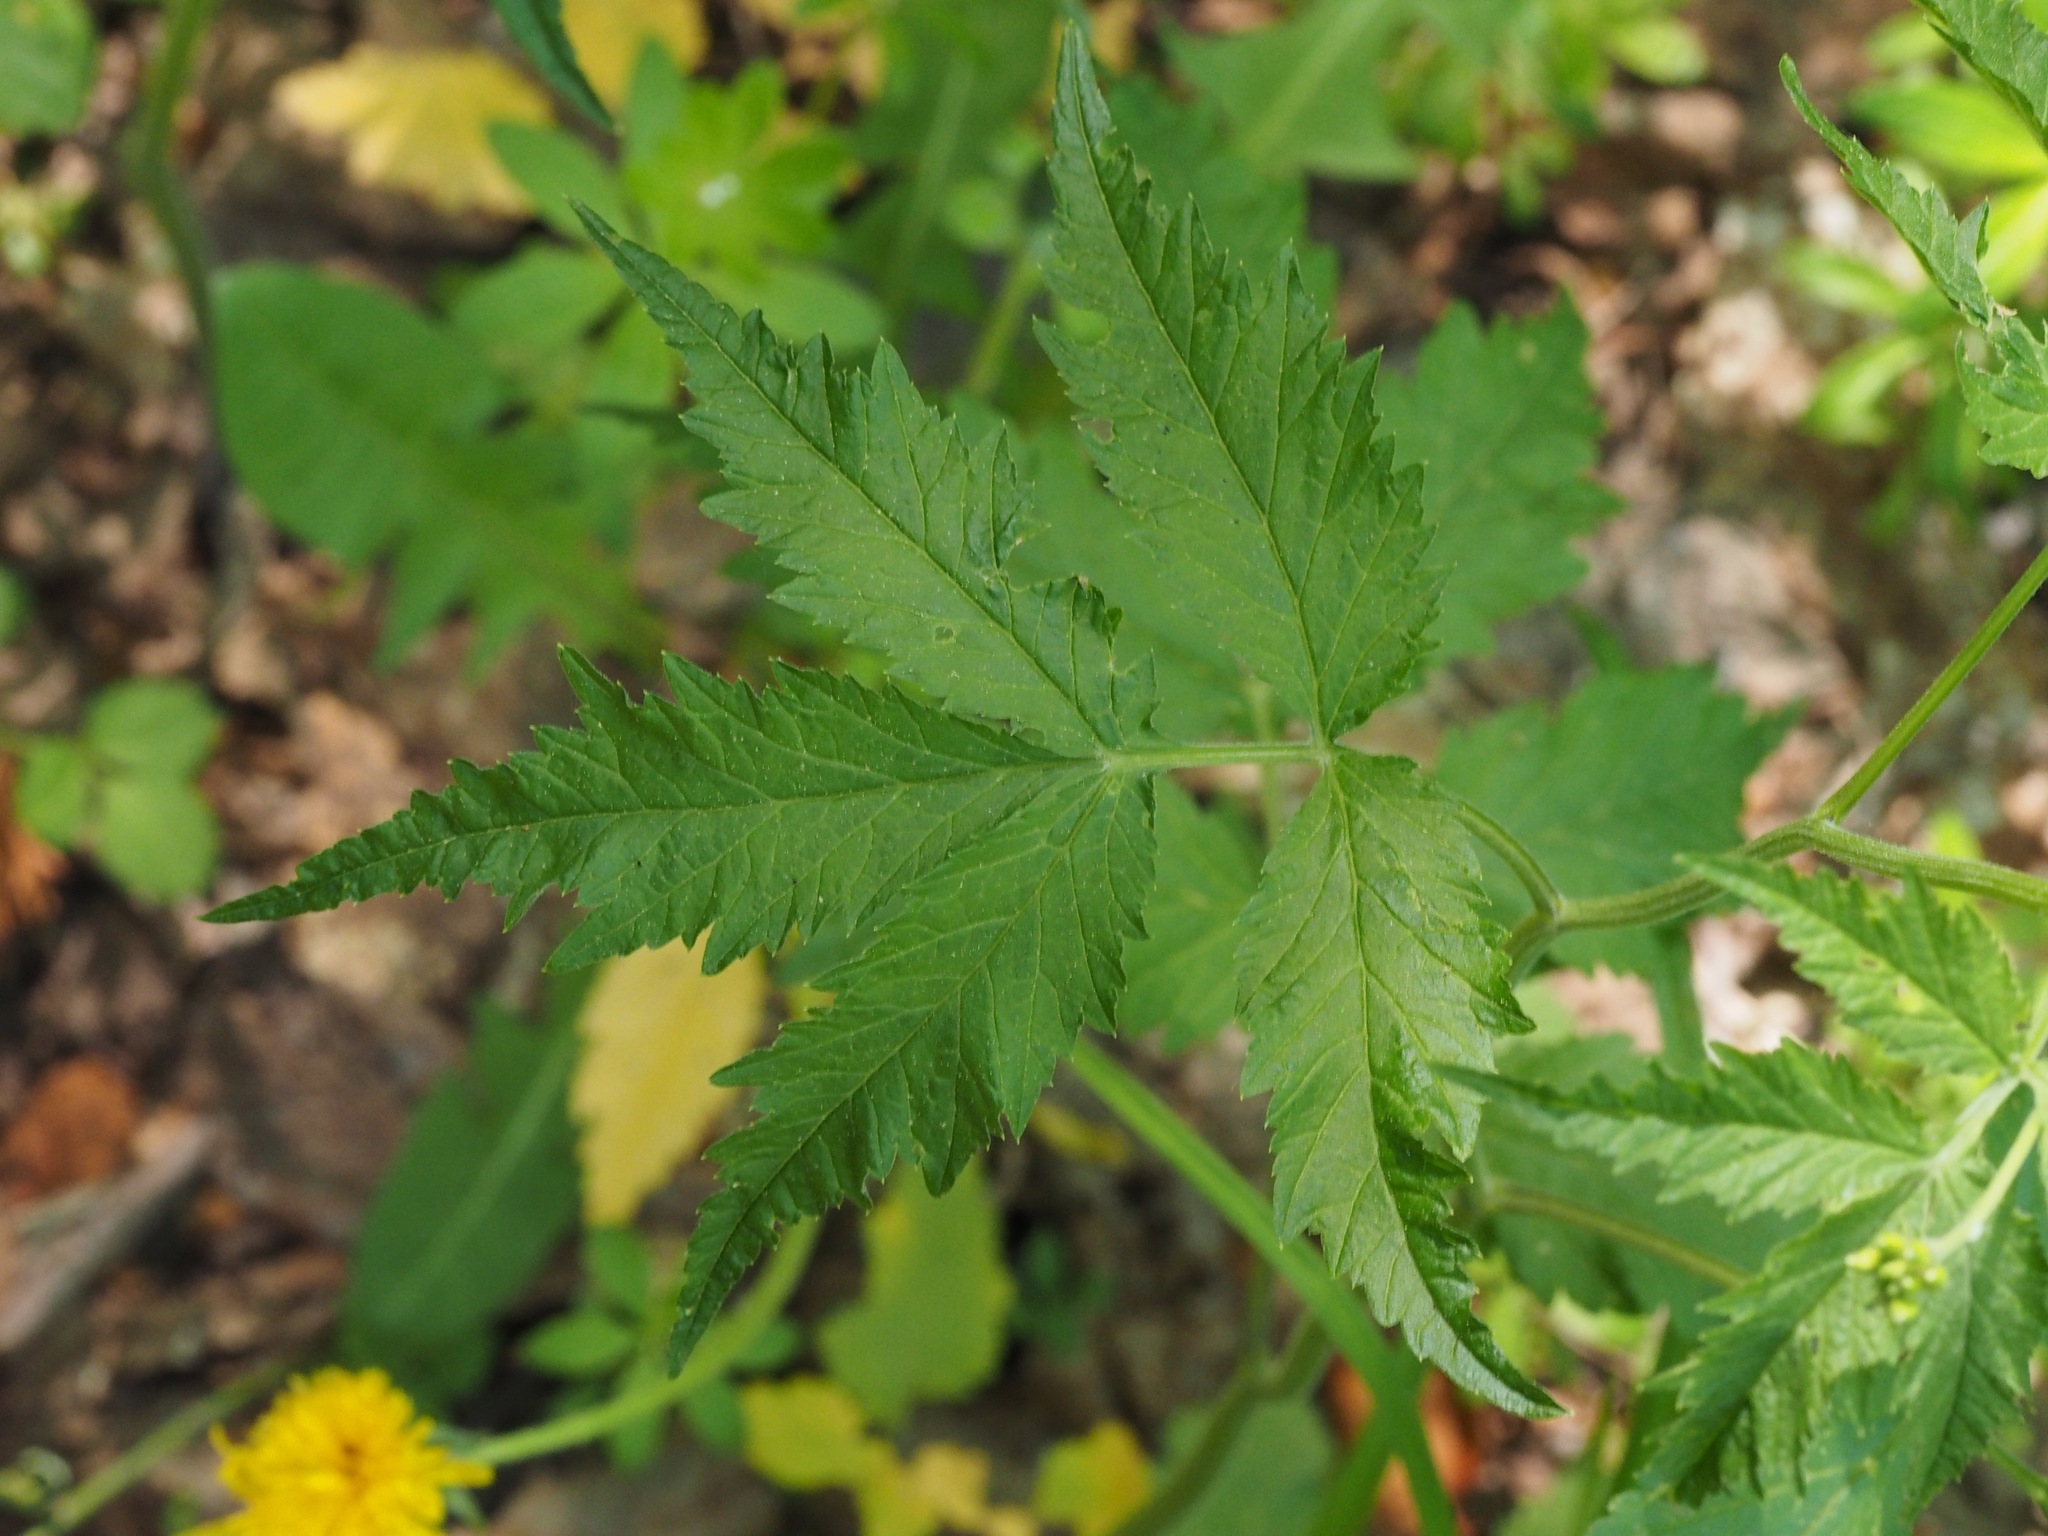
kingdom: Plantae
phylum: Tracheophyta
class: Magnoliopsida
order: Brassicales
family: Brassicaceae
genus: Cardamine
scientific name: Cardamine leucantha
